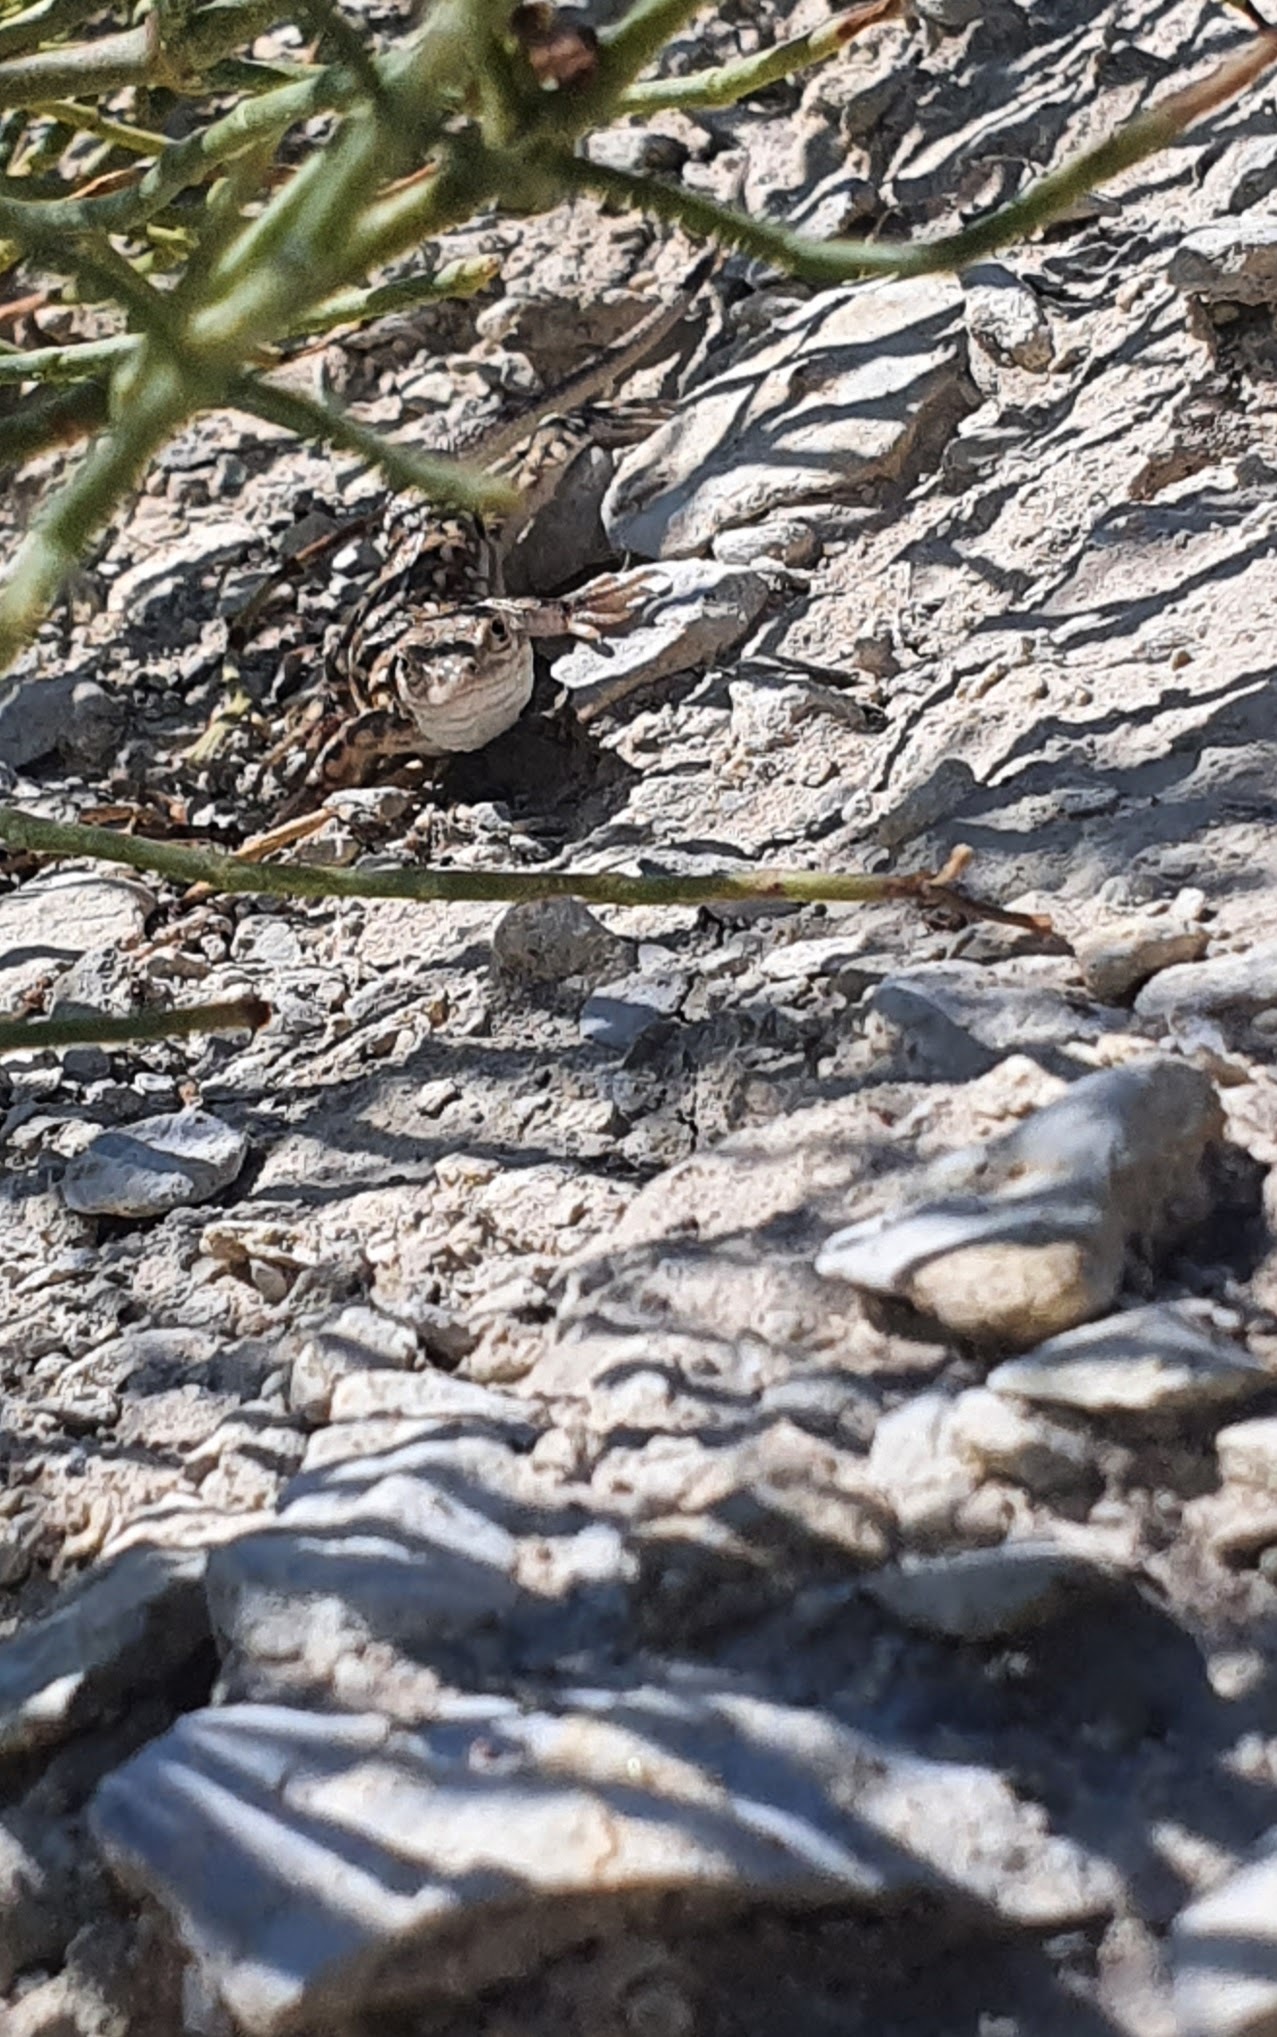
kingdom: Animalia
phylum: Chordata
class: Squamata
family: Lacertidae
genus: Eremias
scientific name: Eremias arguta
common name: Racerunner
